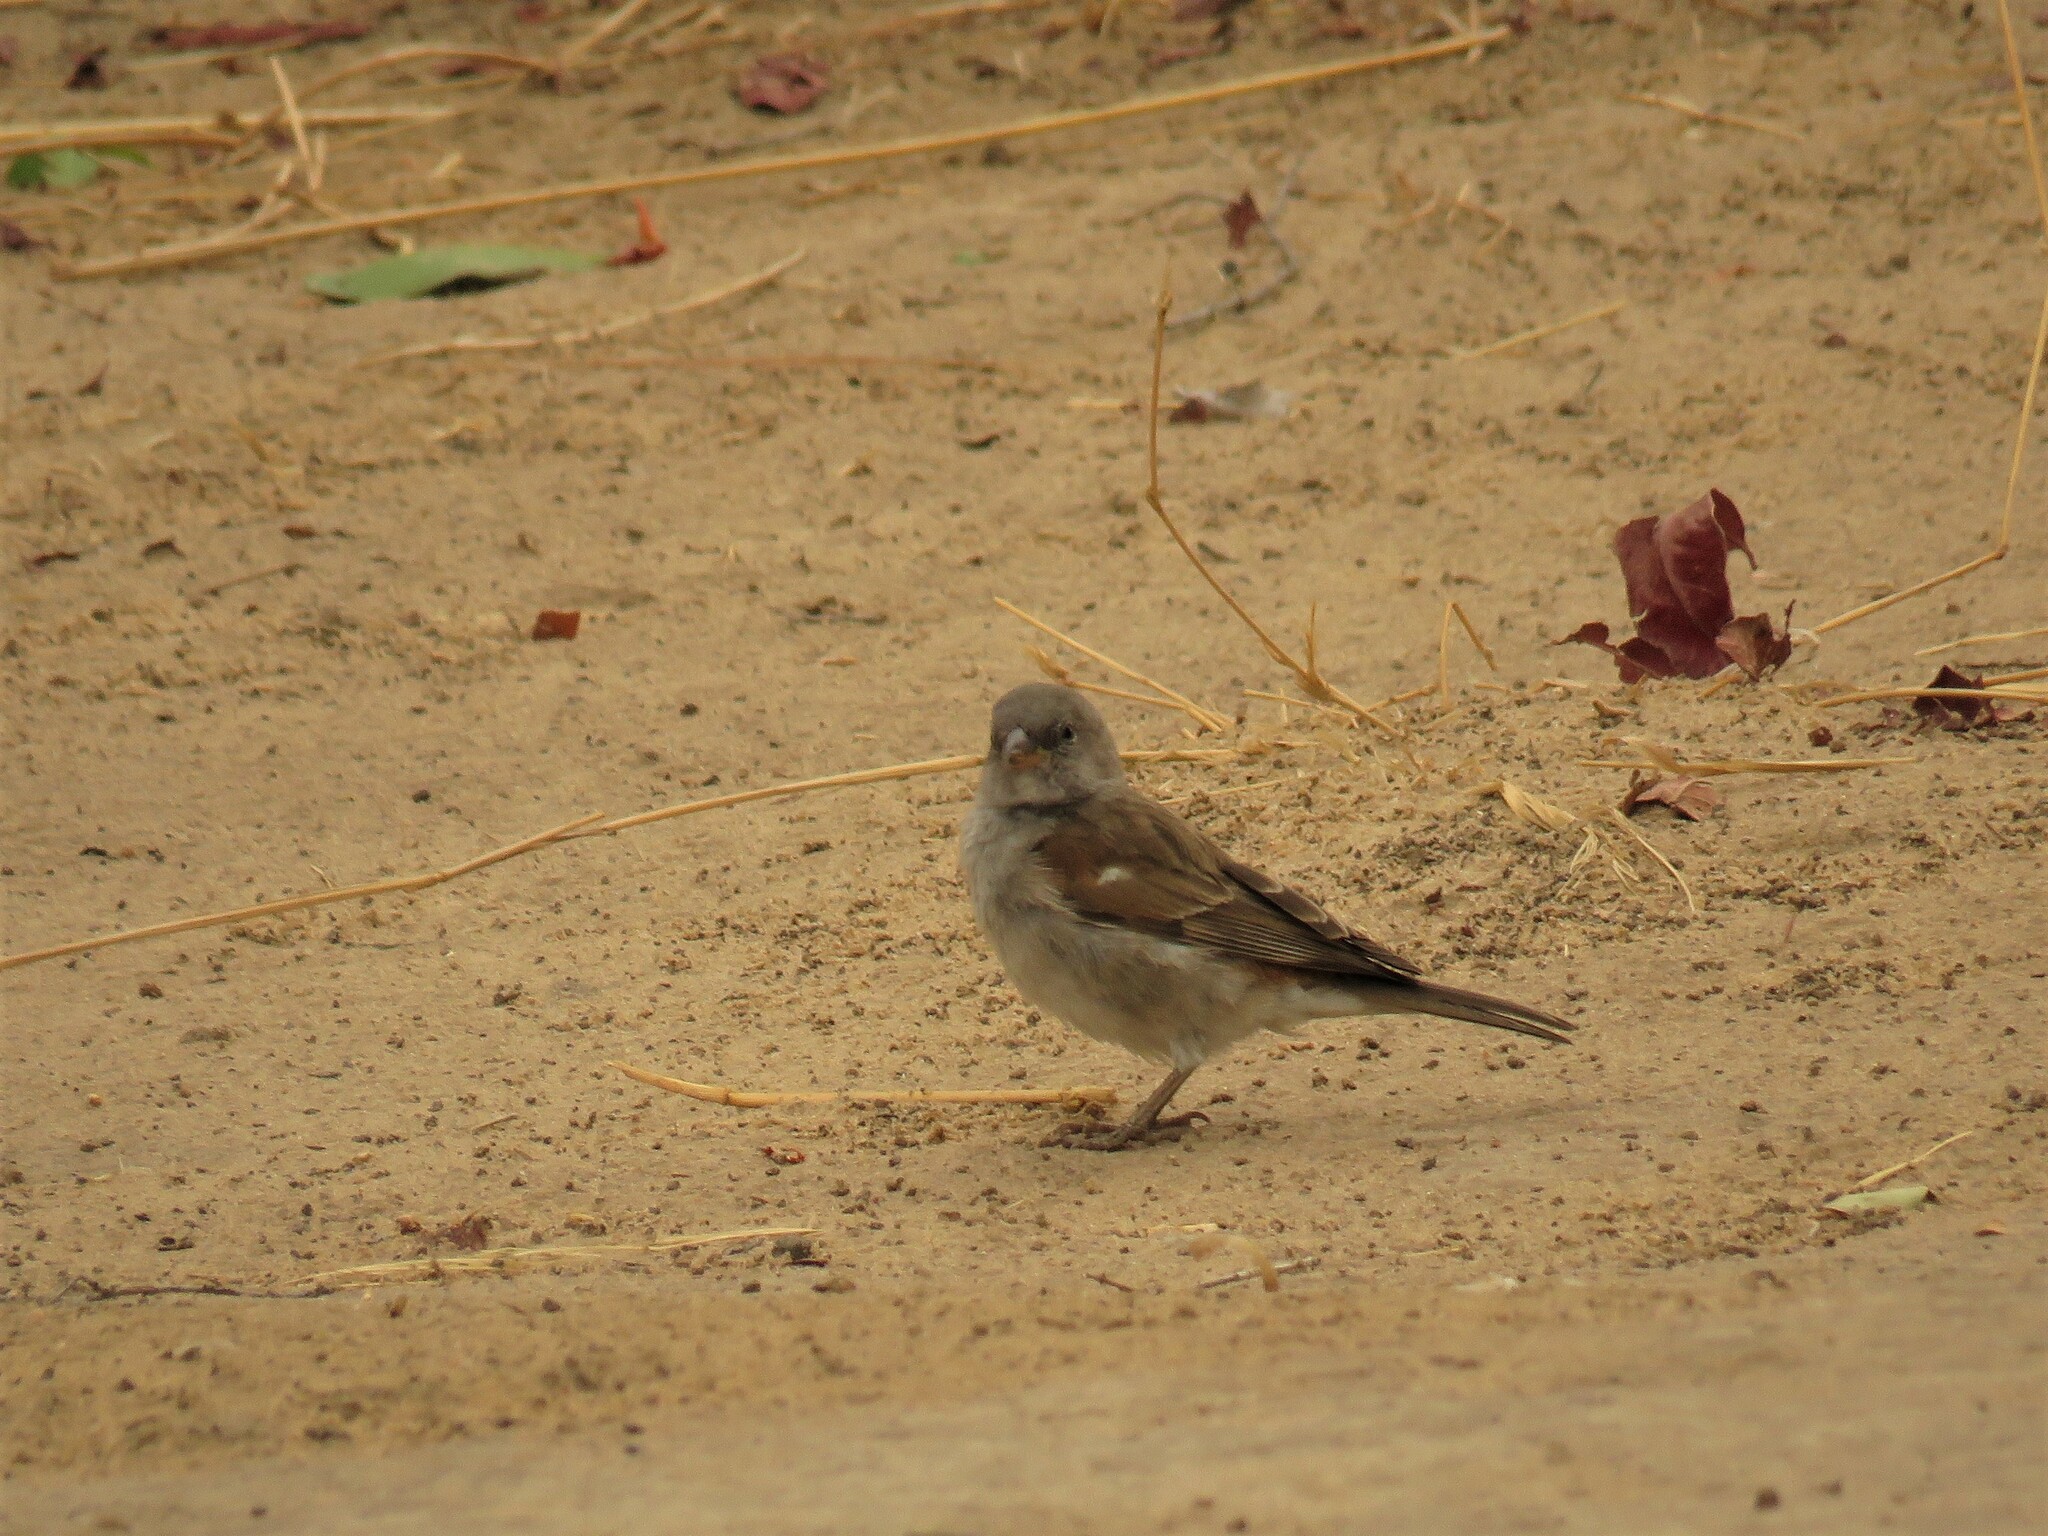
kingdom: Animalia
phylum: Chordata
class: Aves
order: Passeriformes
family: Passeridae
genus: Passer
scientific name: Passer diffusus
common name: Southern grey-headed sparrow
